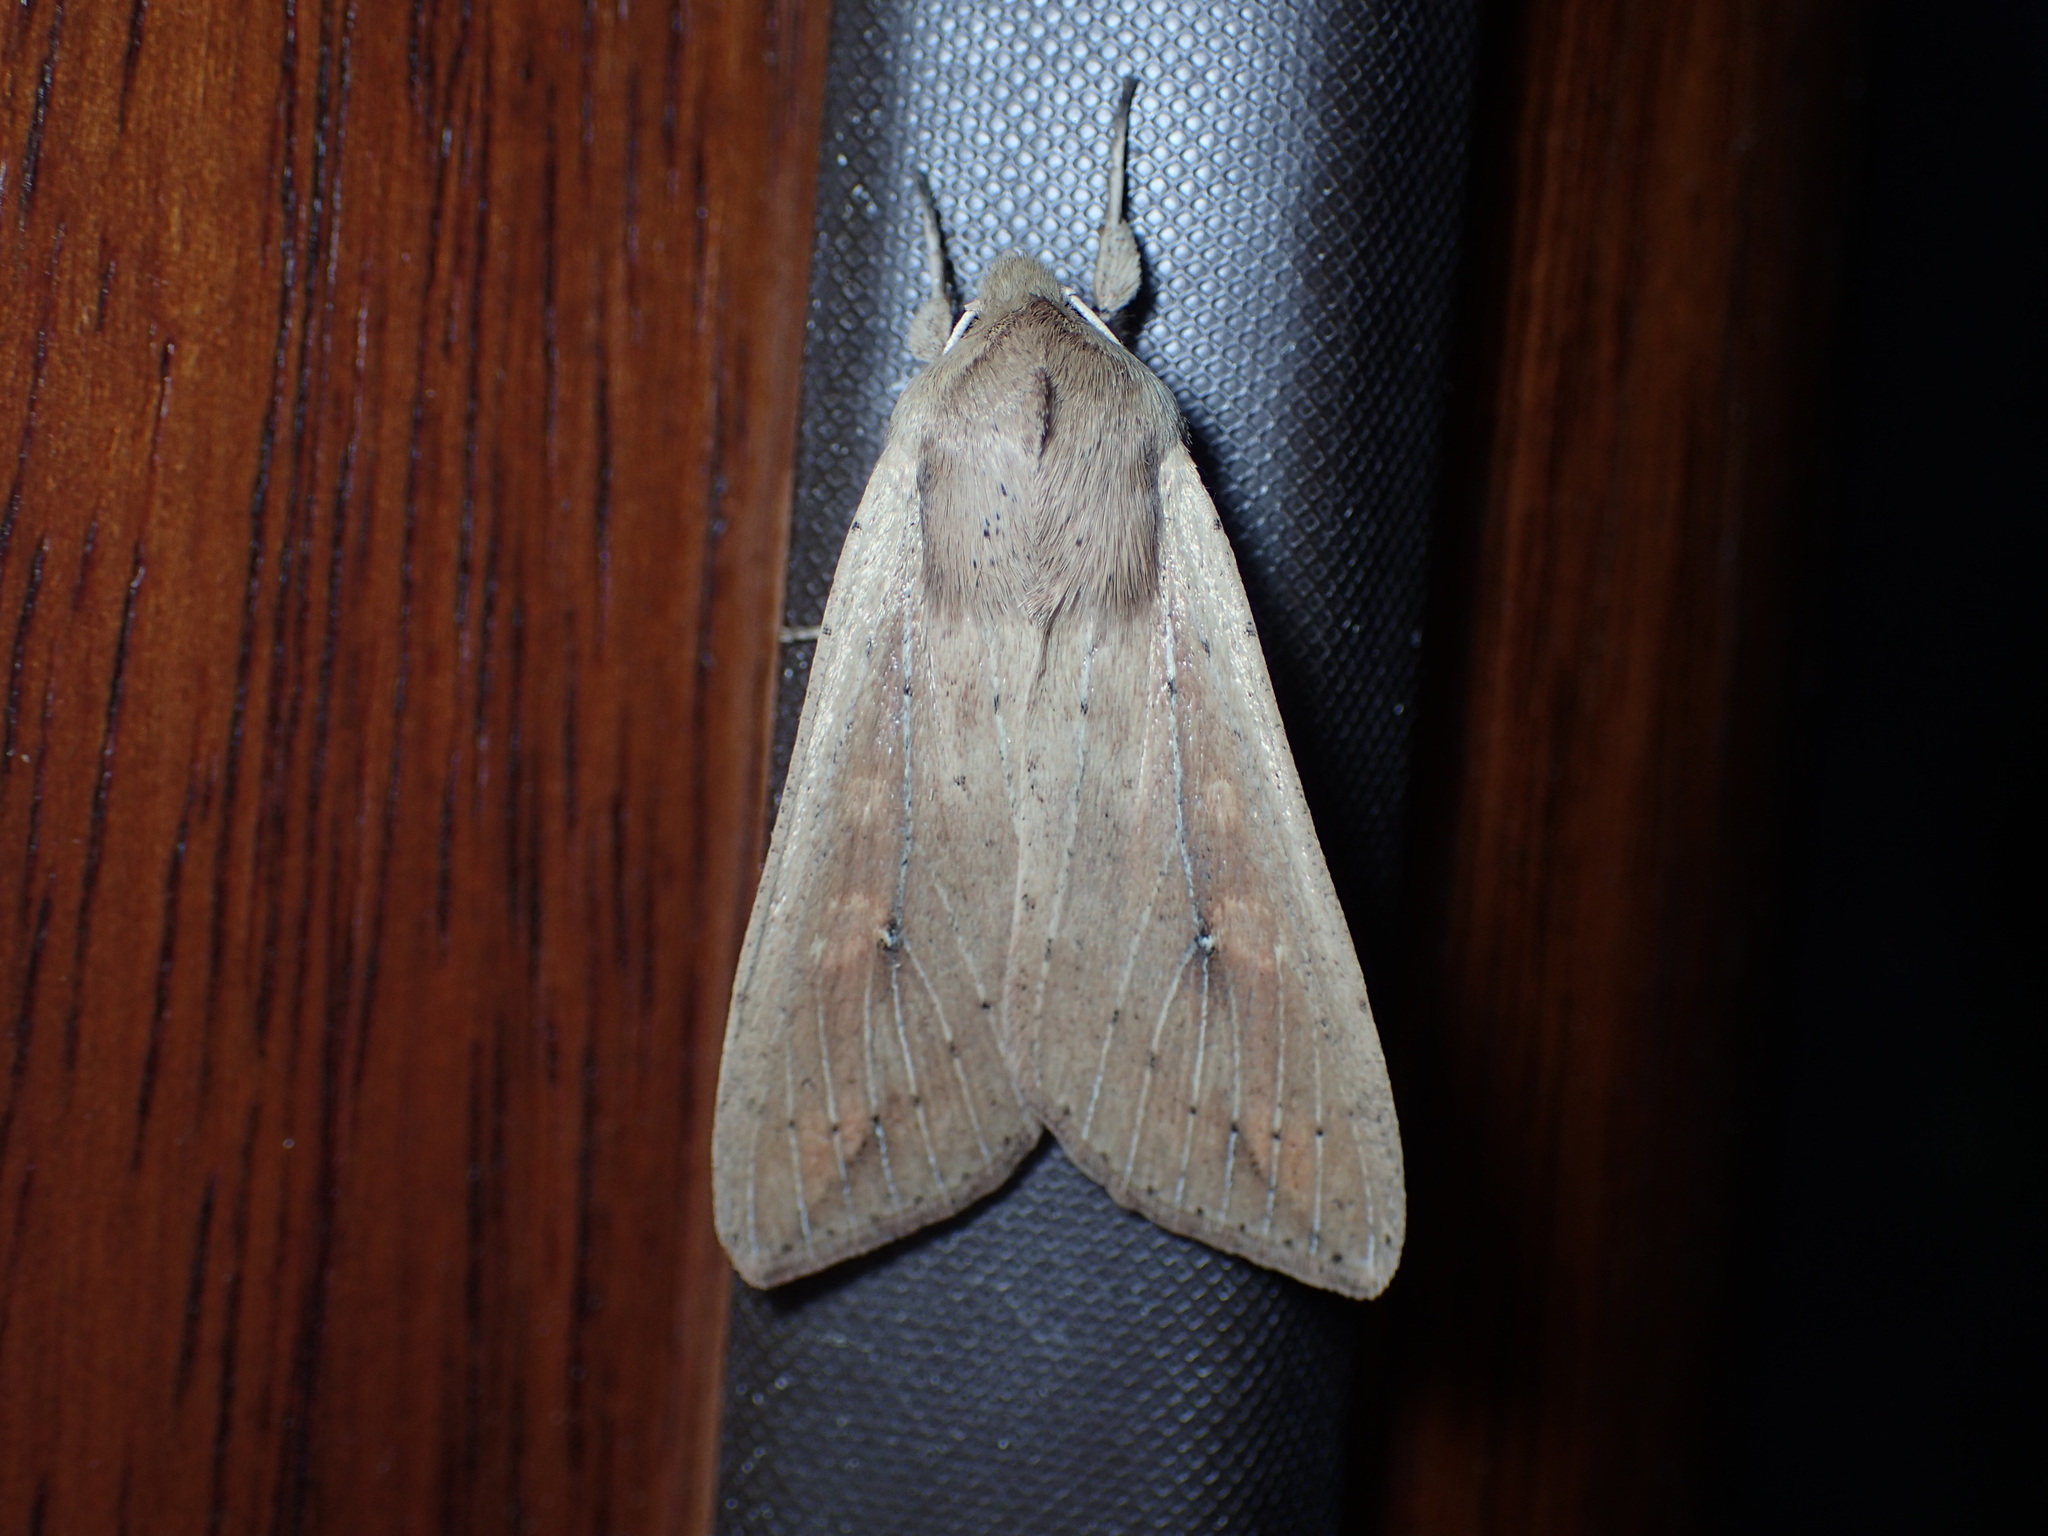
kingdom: Animalia
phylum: Arthropoda
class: Insecta
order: Lepidoptera
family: Noctuidae
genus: Mythimna
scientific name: Mythimna unipuncta
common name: White-speck
